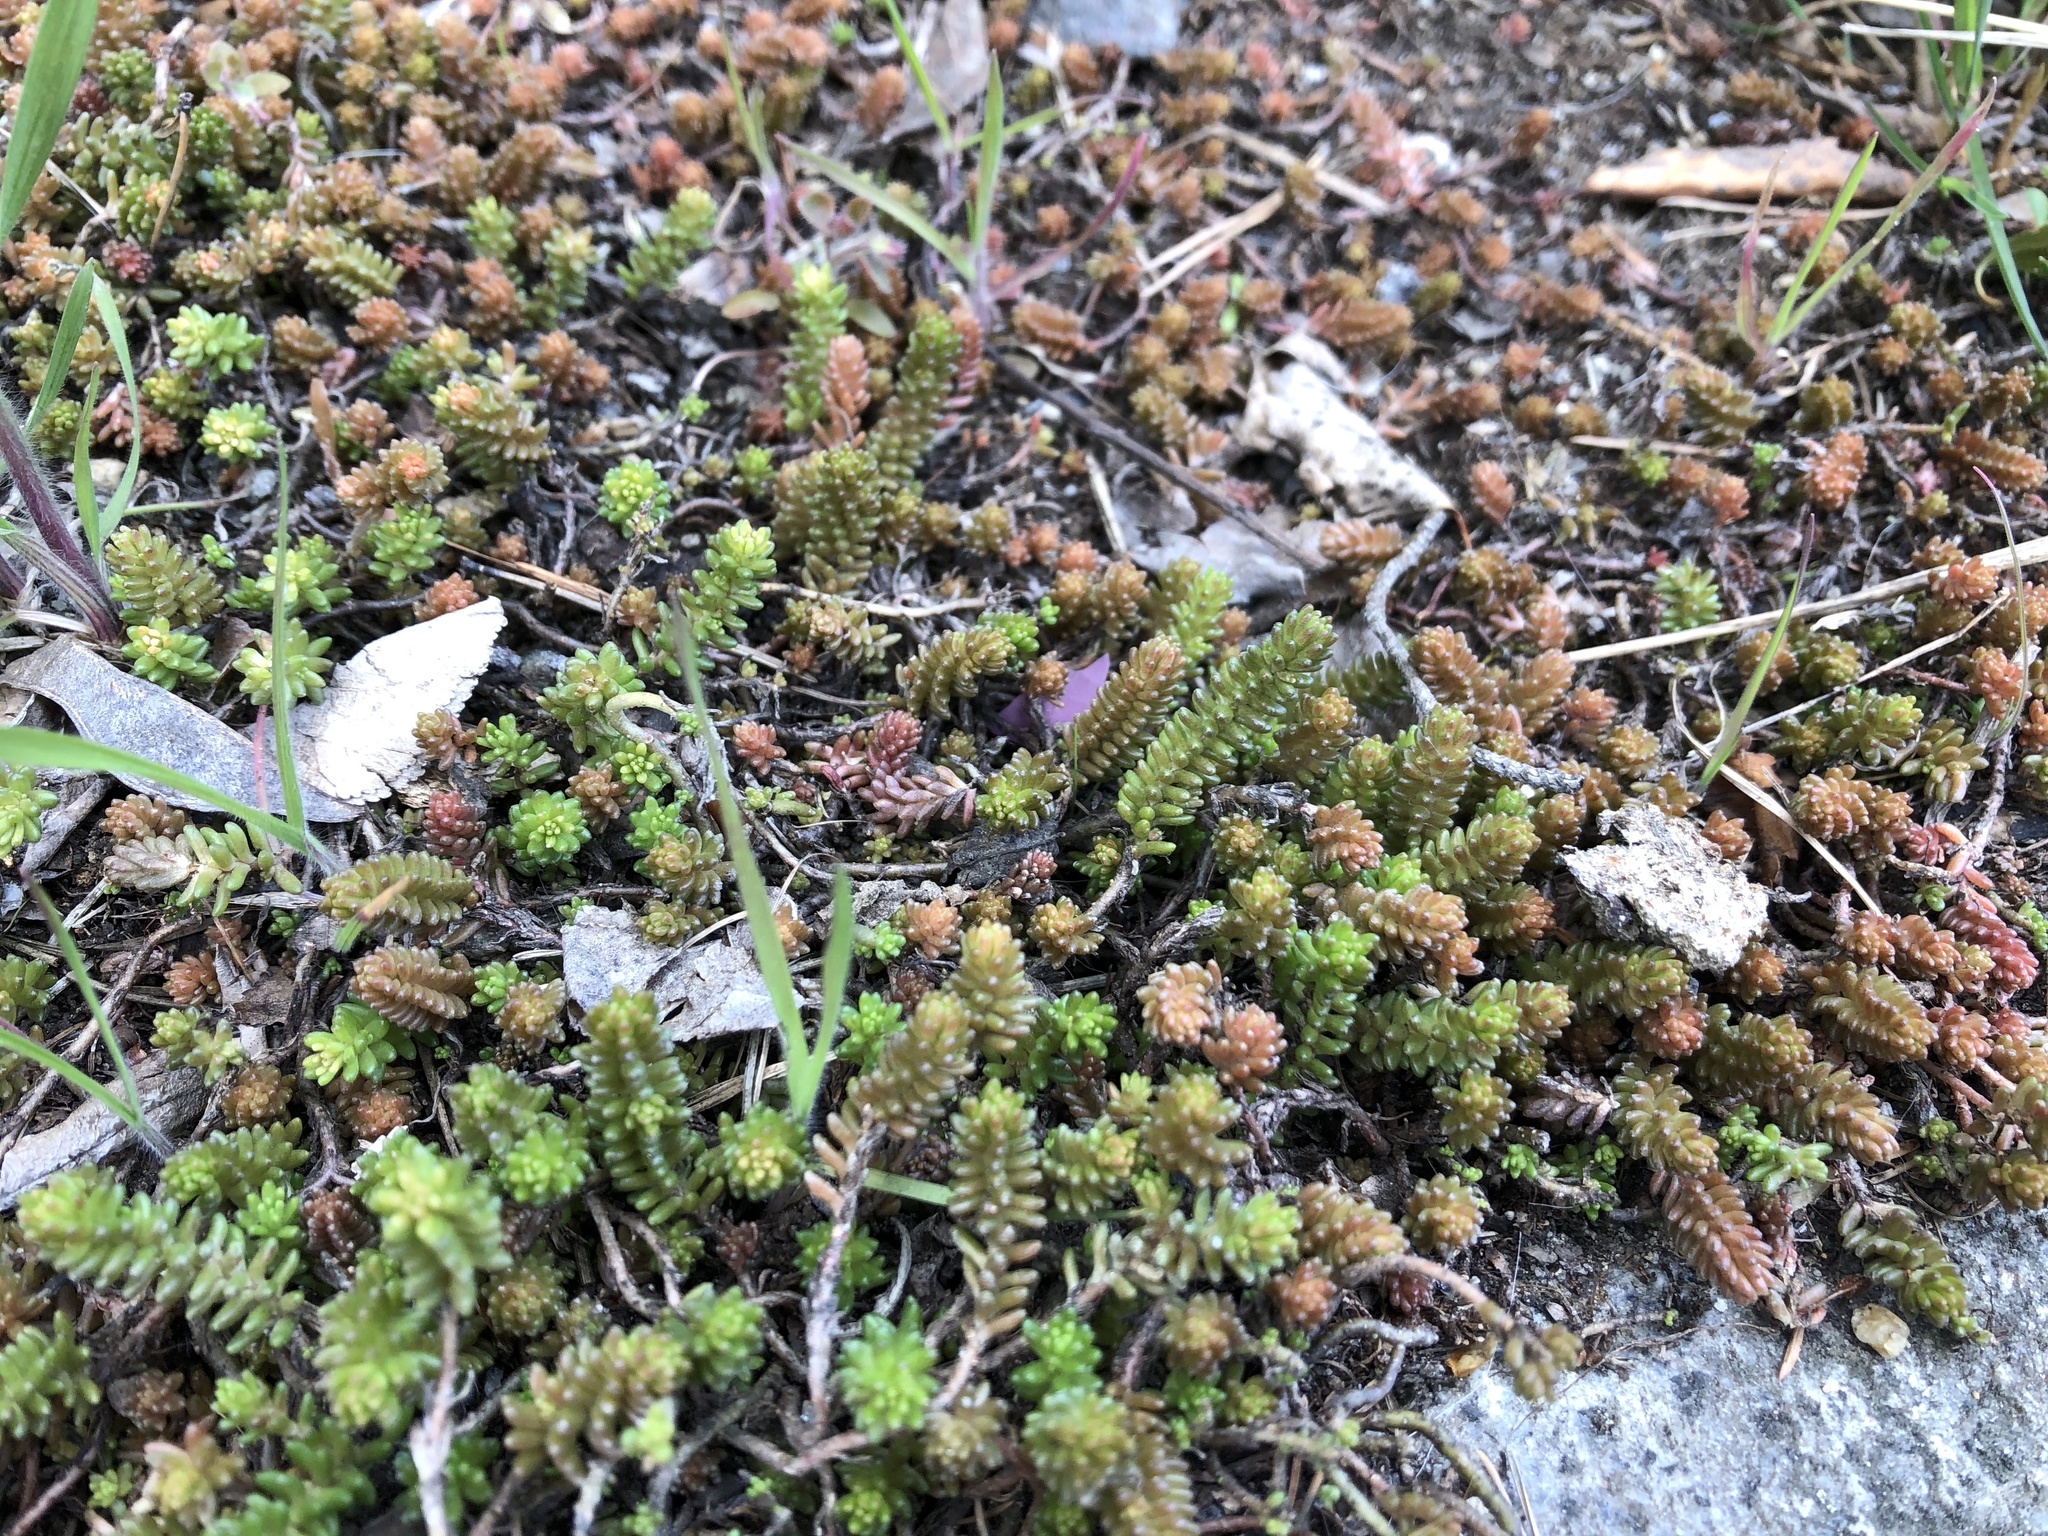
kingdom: Plantae
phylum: Tracheophyta
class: Magnoliopsida
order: Saxifragales
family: Crassulaceae
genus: Sedum
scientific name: Sedum sexangulare
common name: Tasteless stonecrop
